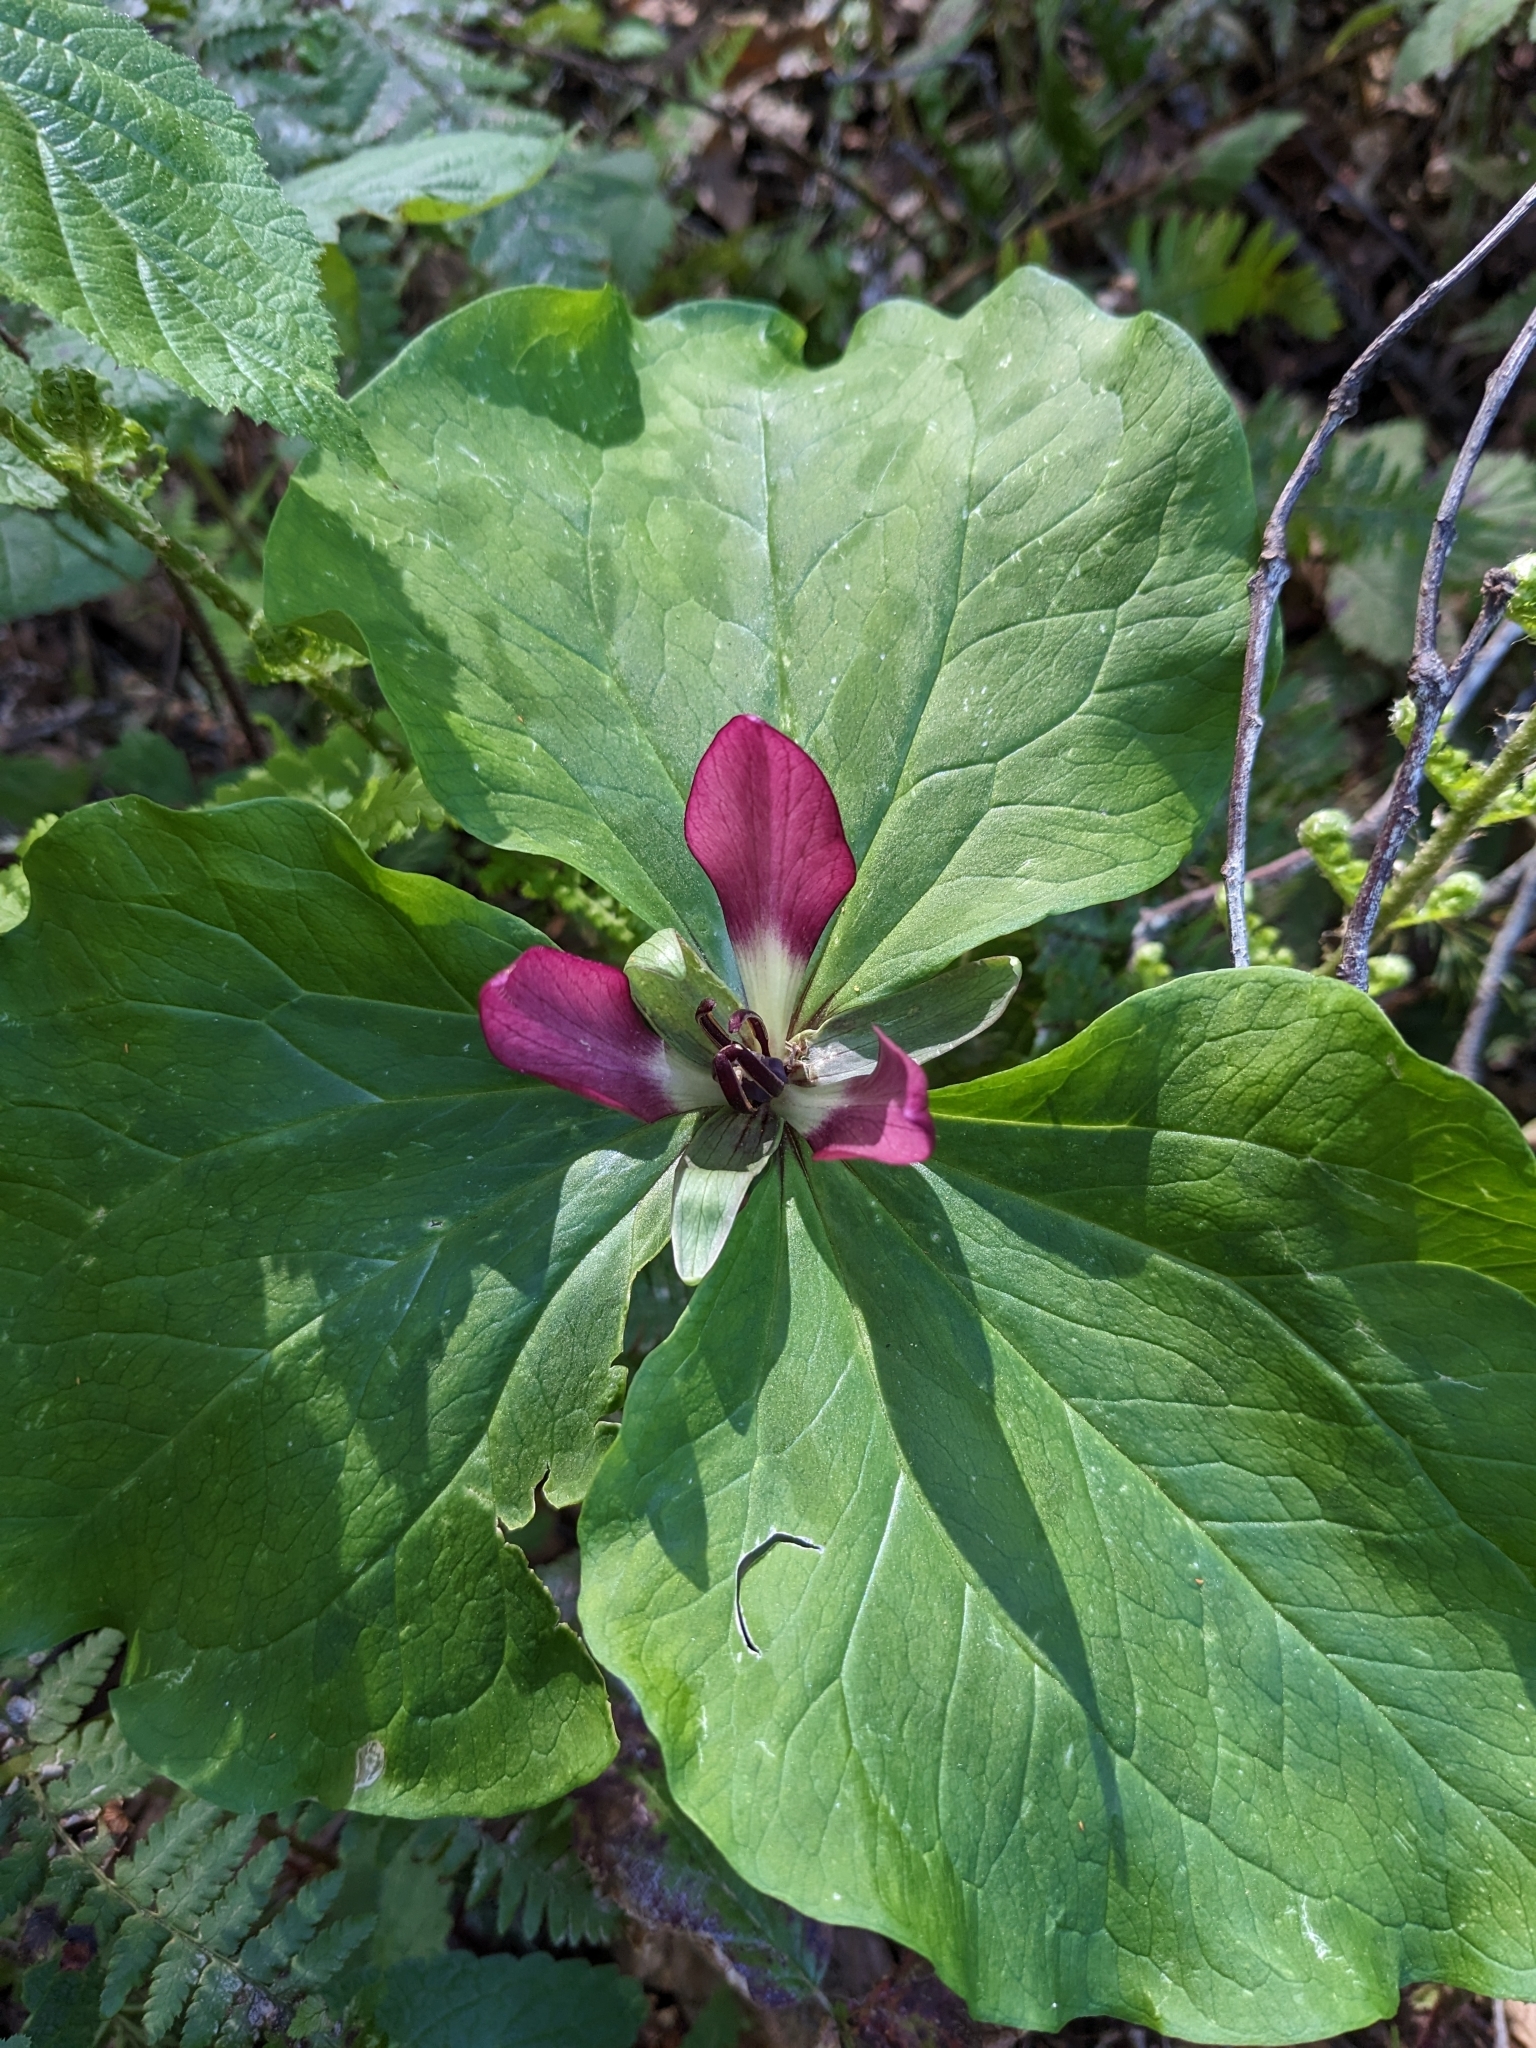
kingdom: Plantae
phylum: Tracheophyta
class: Liliopsida
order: Liliales
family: Melanthiaceae
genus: Trillium
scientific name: Trillium chloropetalum
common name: Giant trillium
